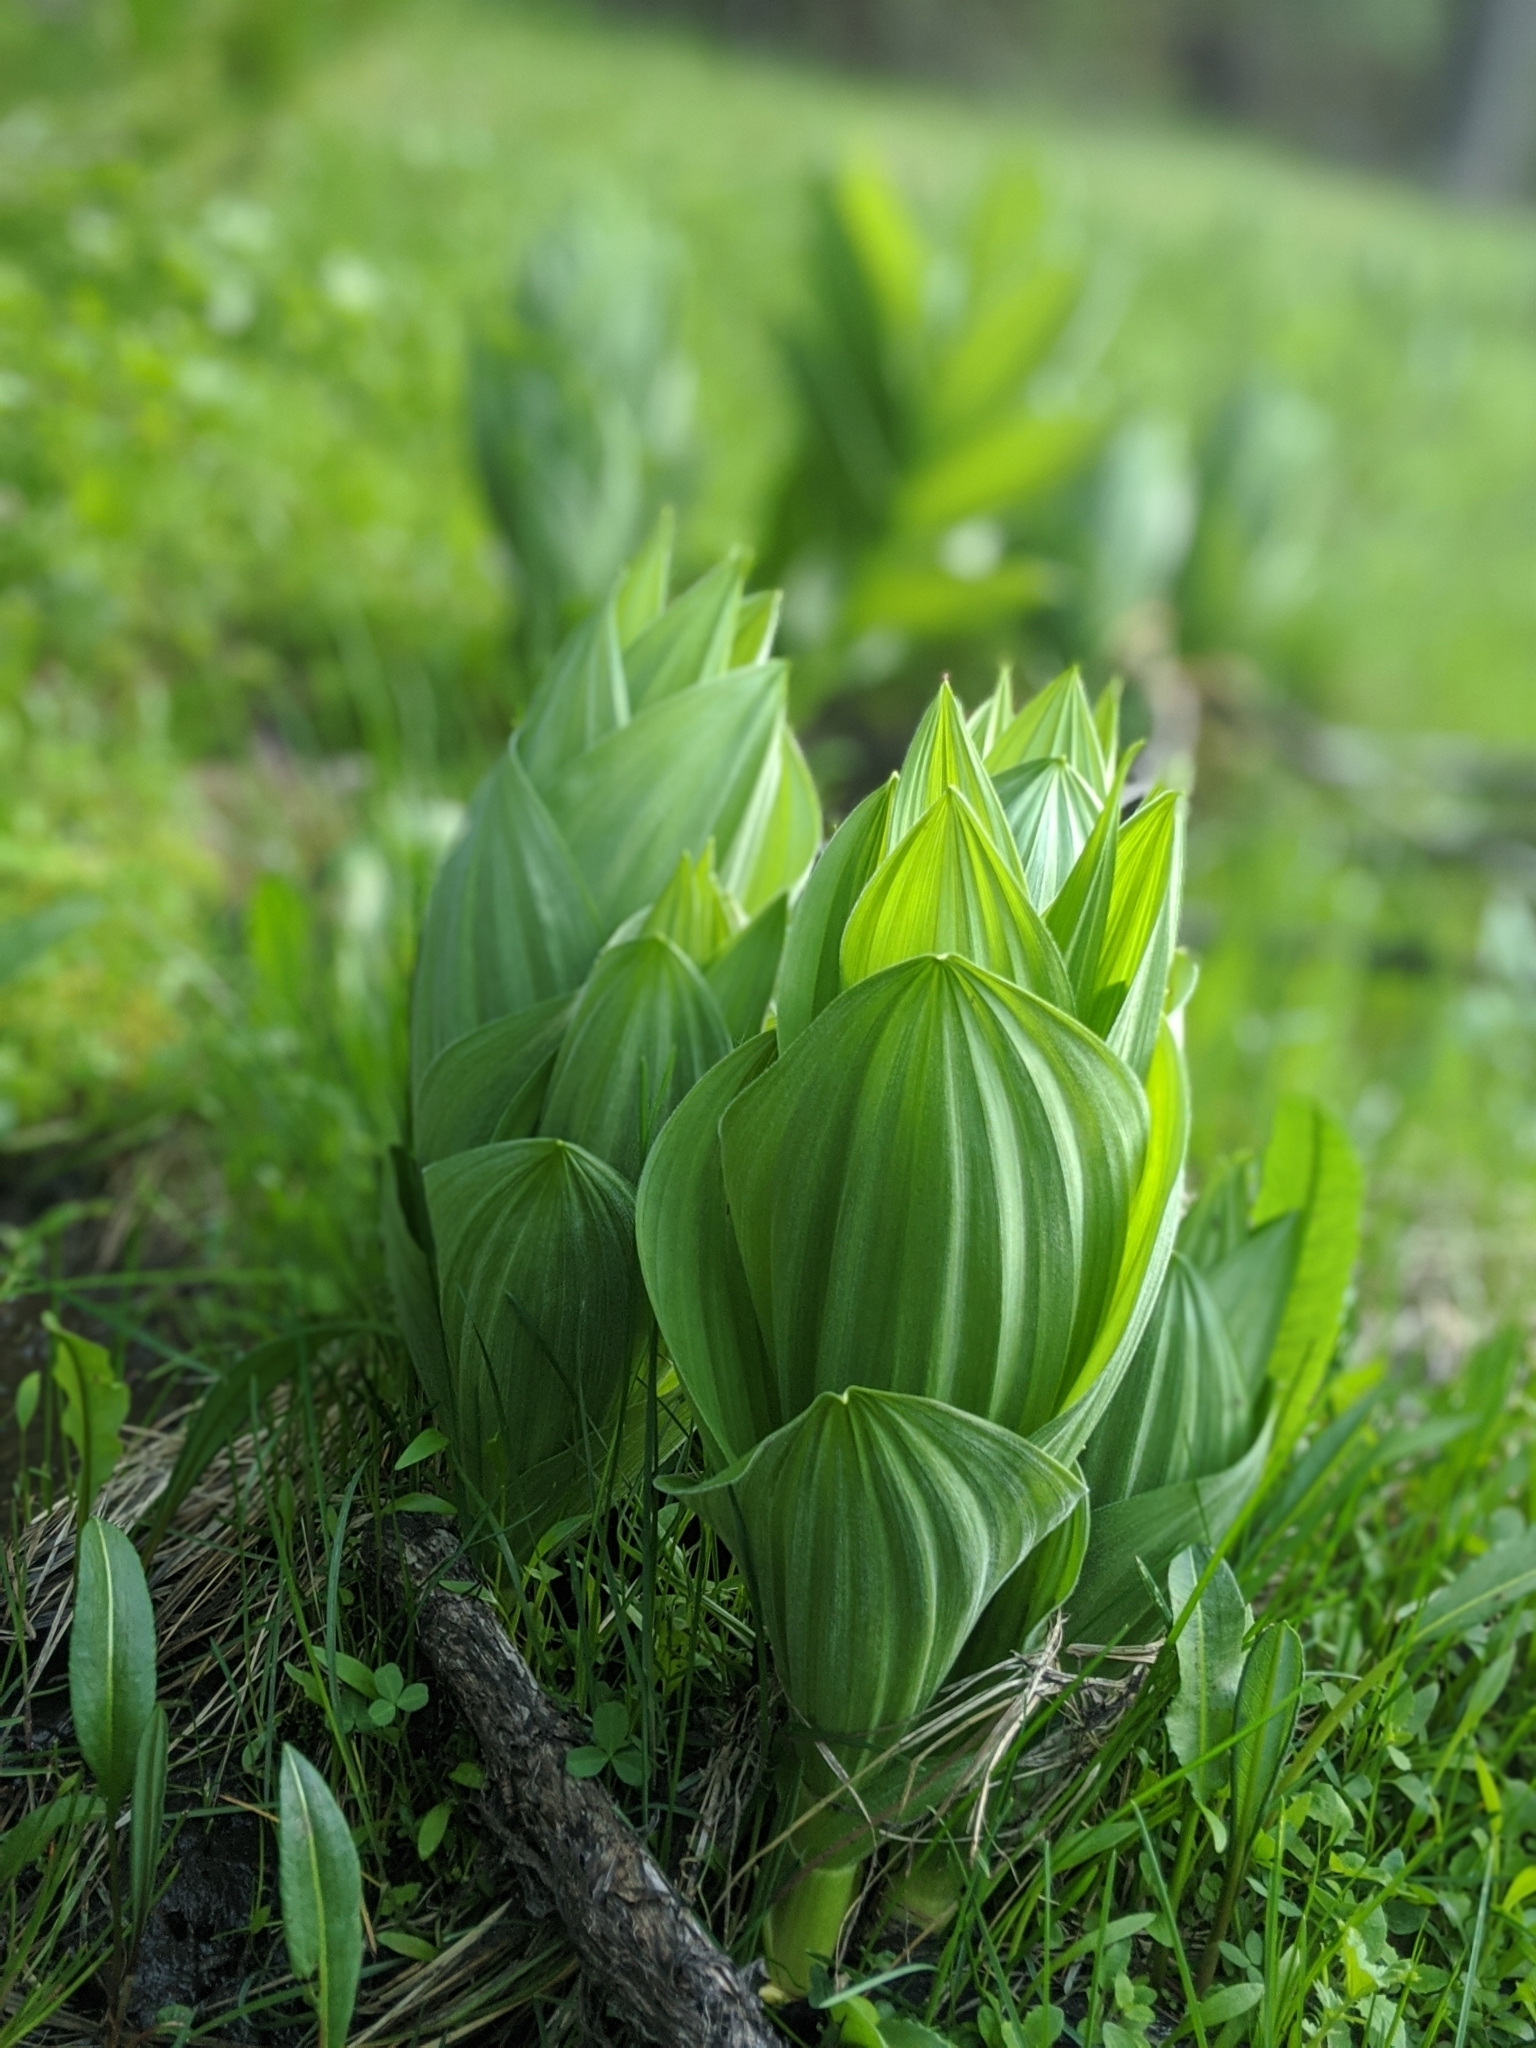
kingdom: Plantae
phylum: Tracheophyta
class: Liliopsida
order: Liliales
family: Melanthiaceae
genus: Veratrum
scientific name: Veratrum californicum
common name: California veratrum
